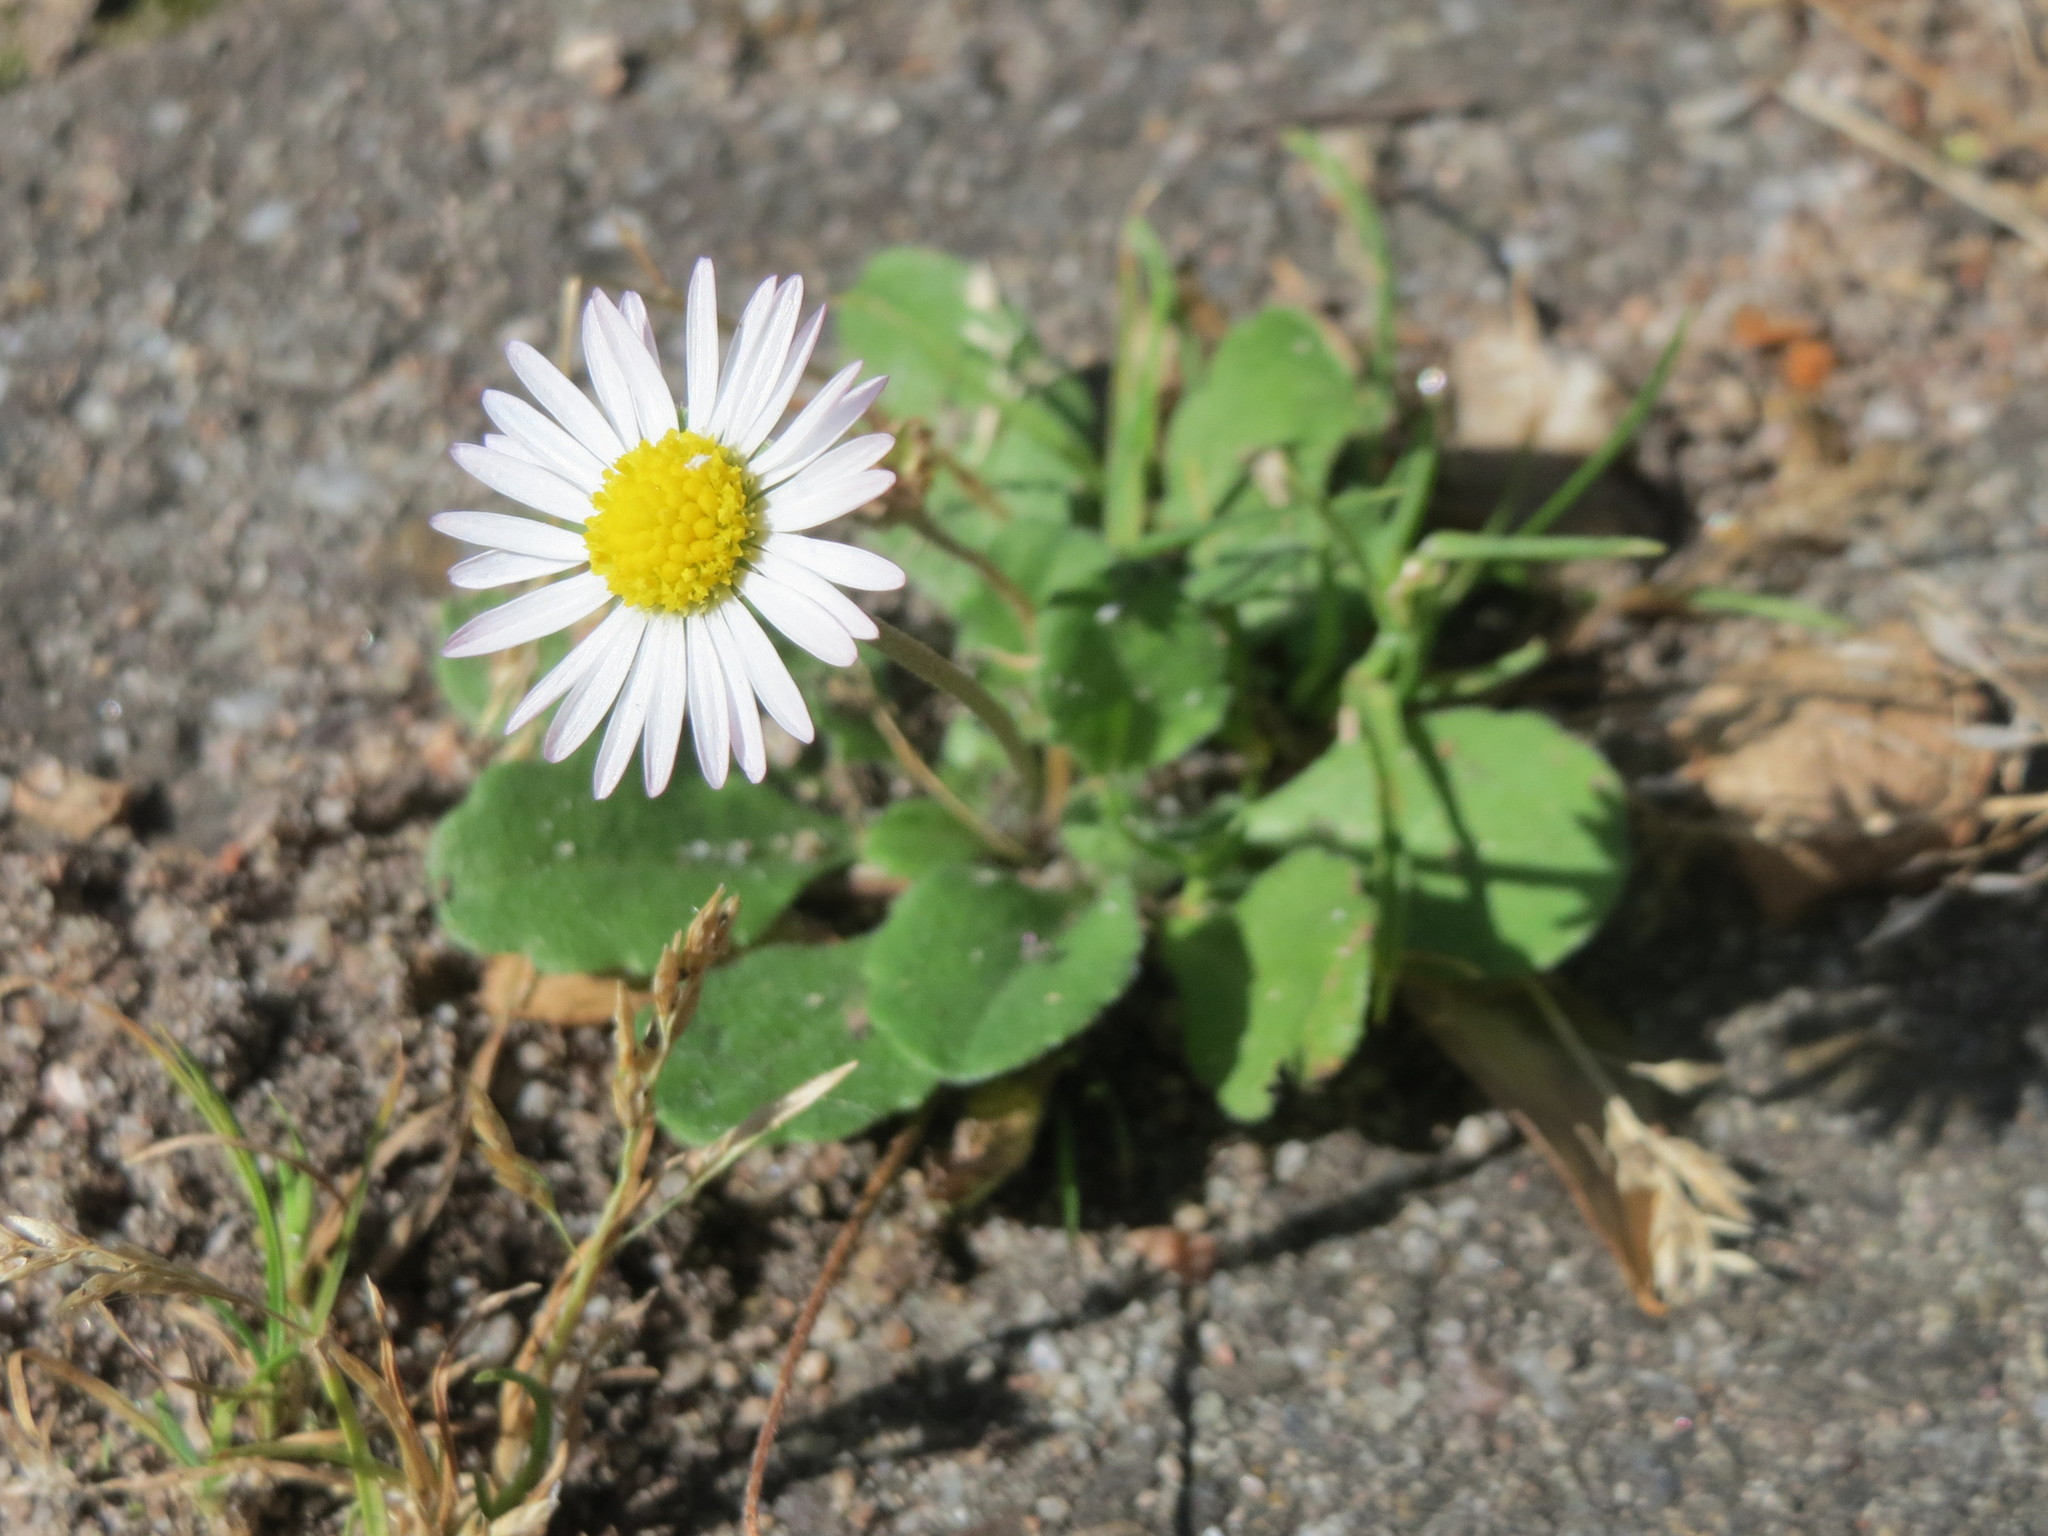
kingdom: Plantae
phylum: Tracheophyta
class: Magnoliopsida
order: Asterales
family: Asteraceae
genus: Bellis
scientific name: Bellis perennis
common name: Lawndaisy
